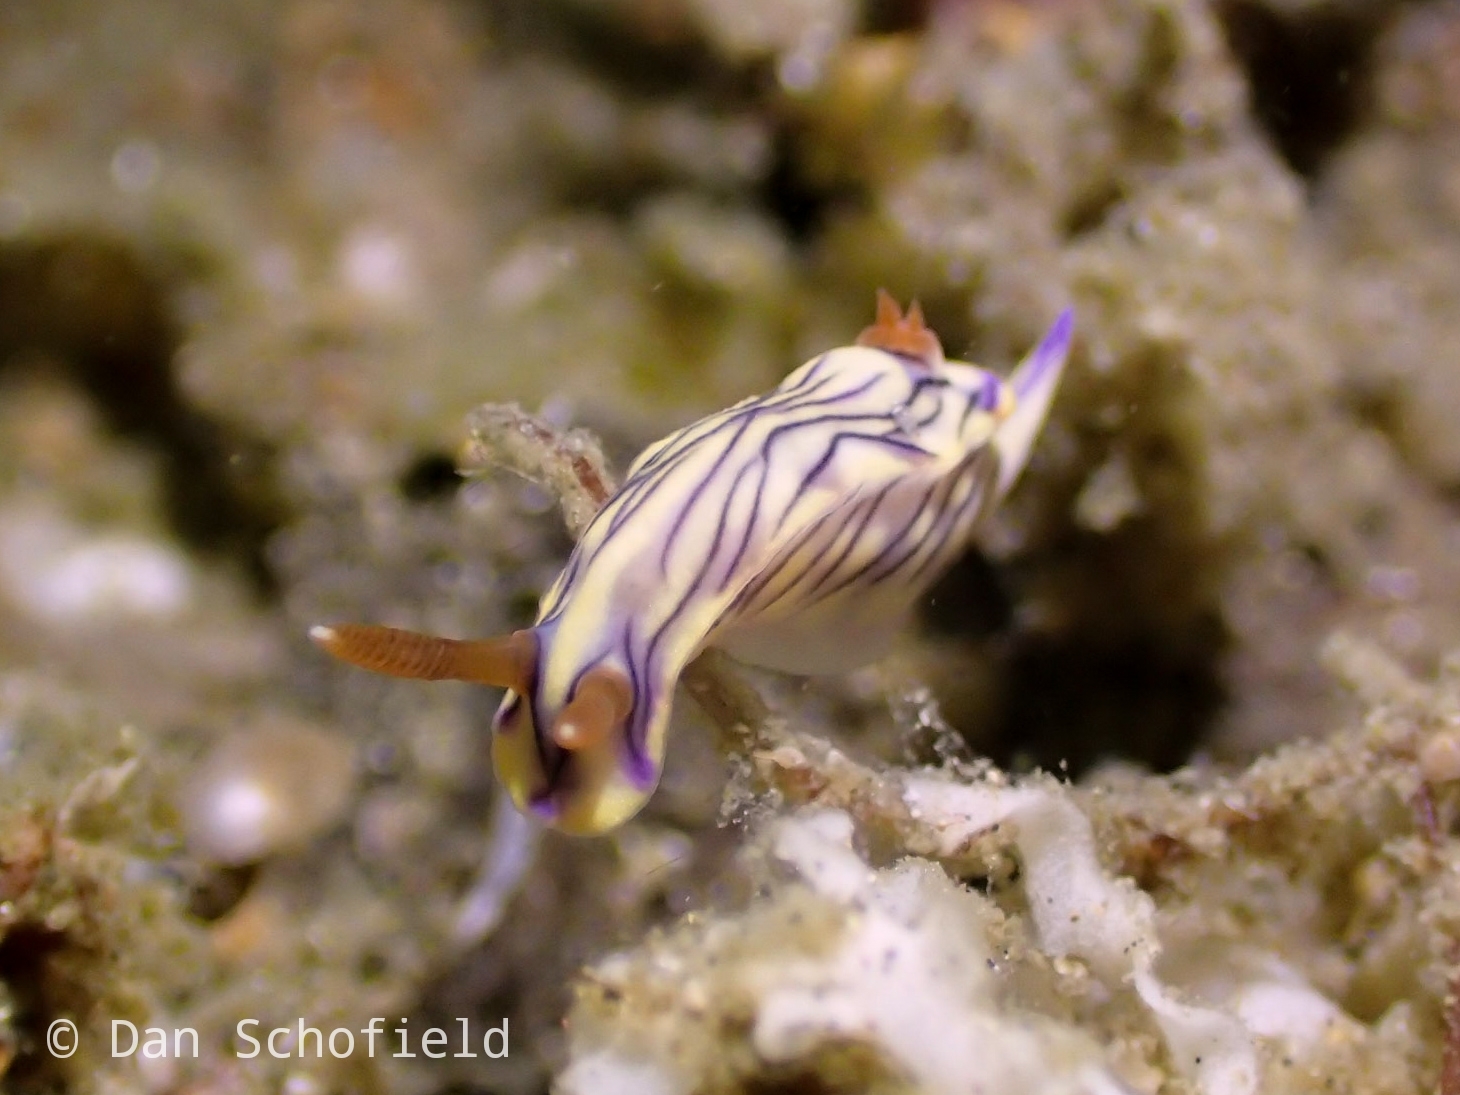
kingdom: Animalia
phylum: Mollusca
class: Gastropoda
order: Nudibranchia
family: Chromodorididae
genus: Hypselodoris
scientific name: Hypselodoris zephyra
